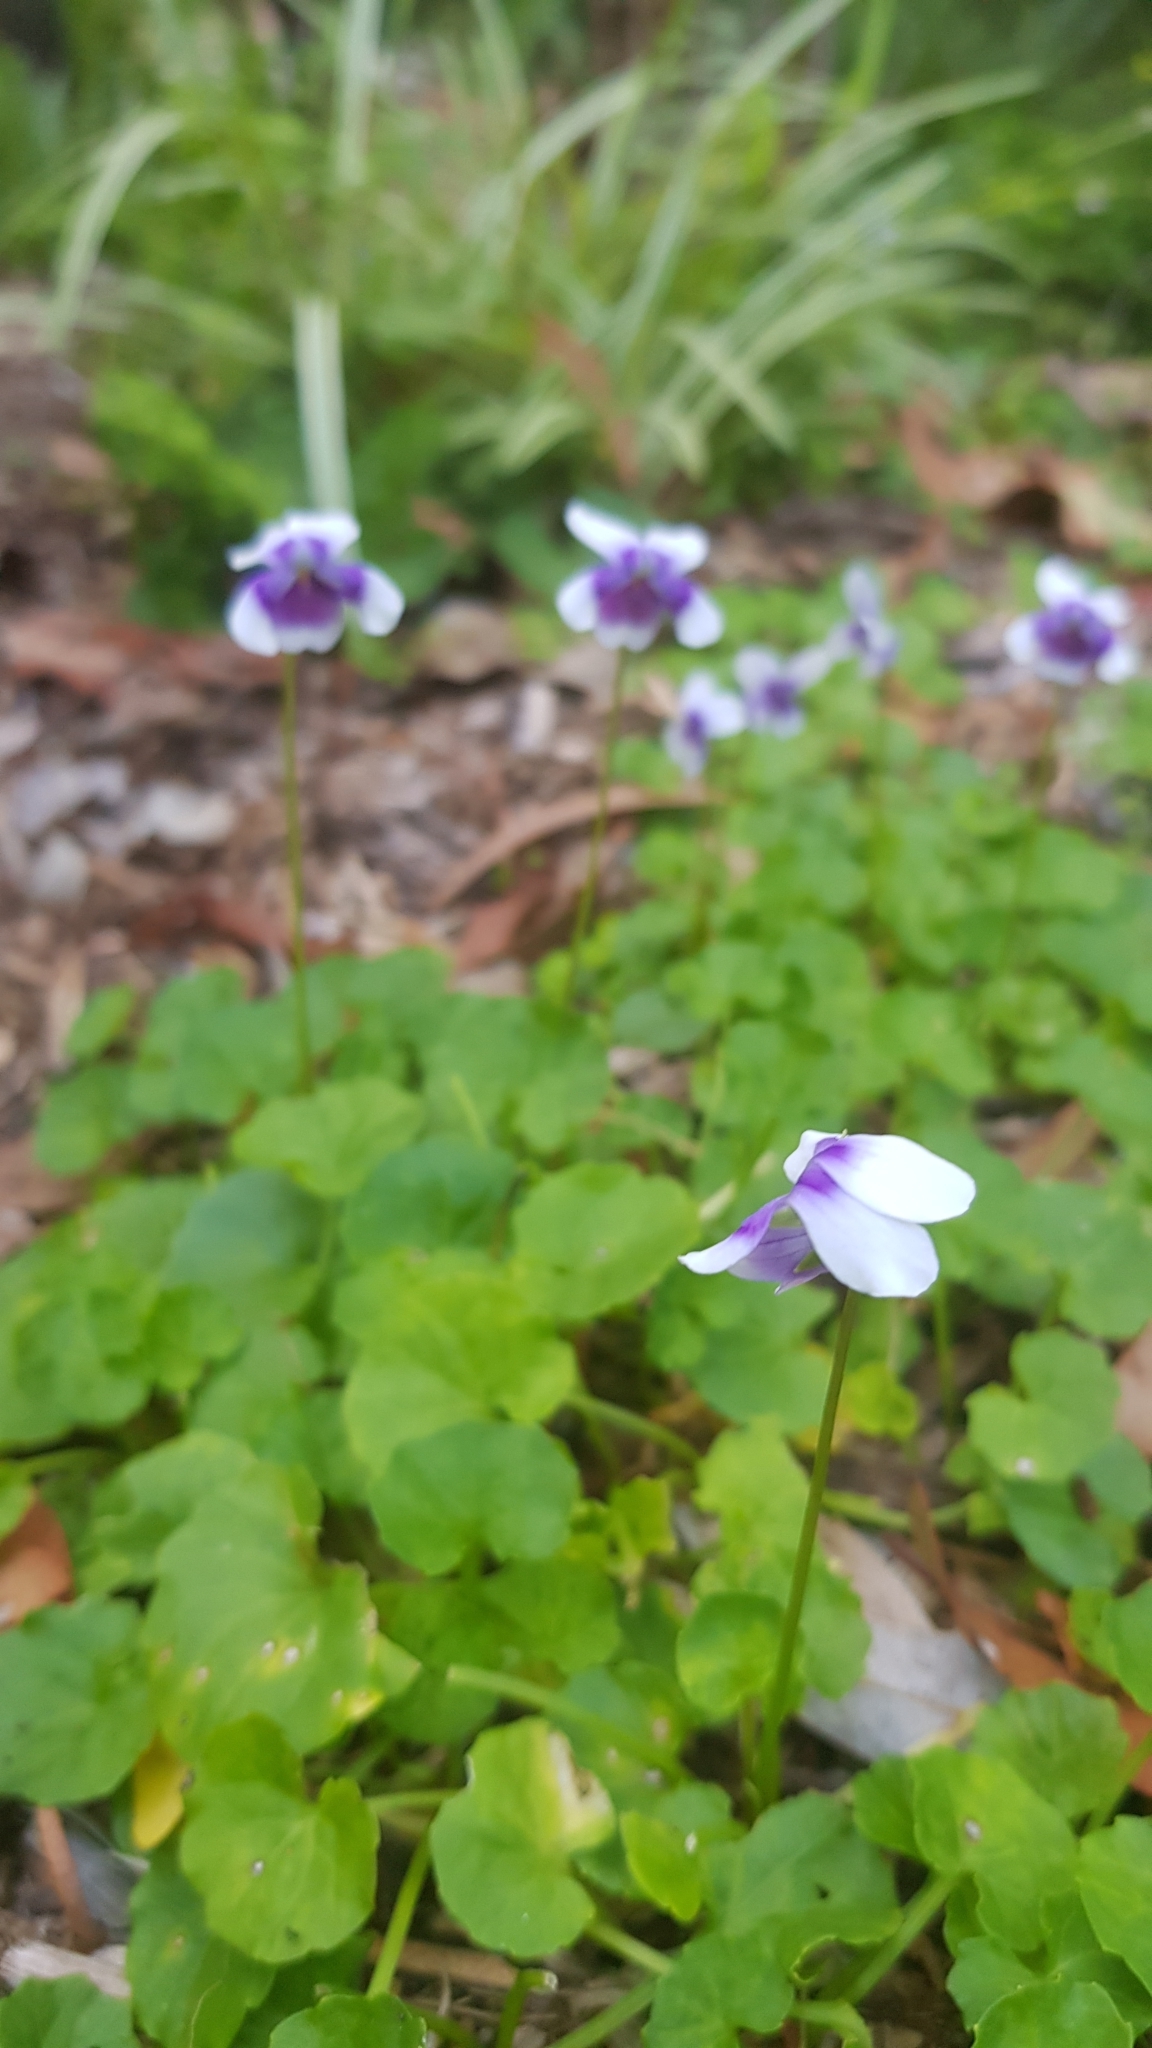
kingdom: Plantae
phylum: Tracheophyta
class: Magnoliopsida
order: Malpighiales
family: Violaceae
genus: Viola
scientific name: Viola banksii
